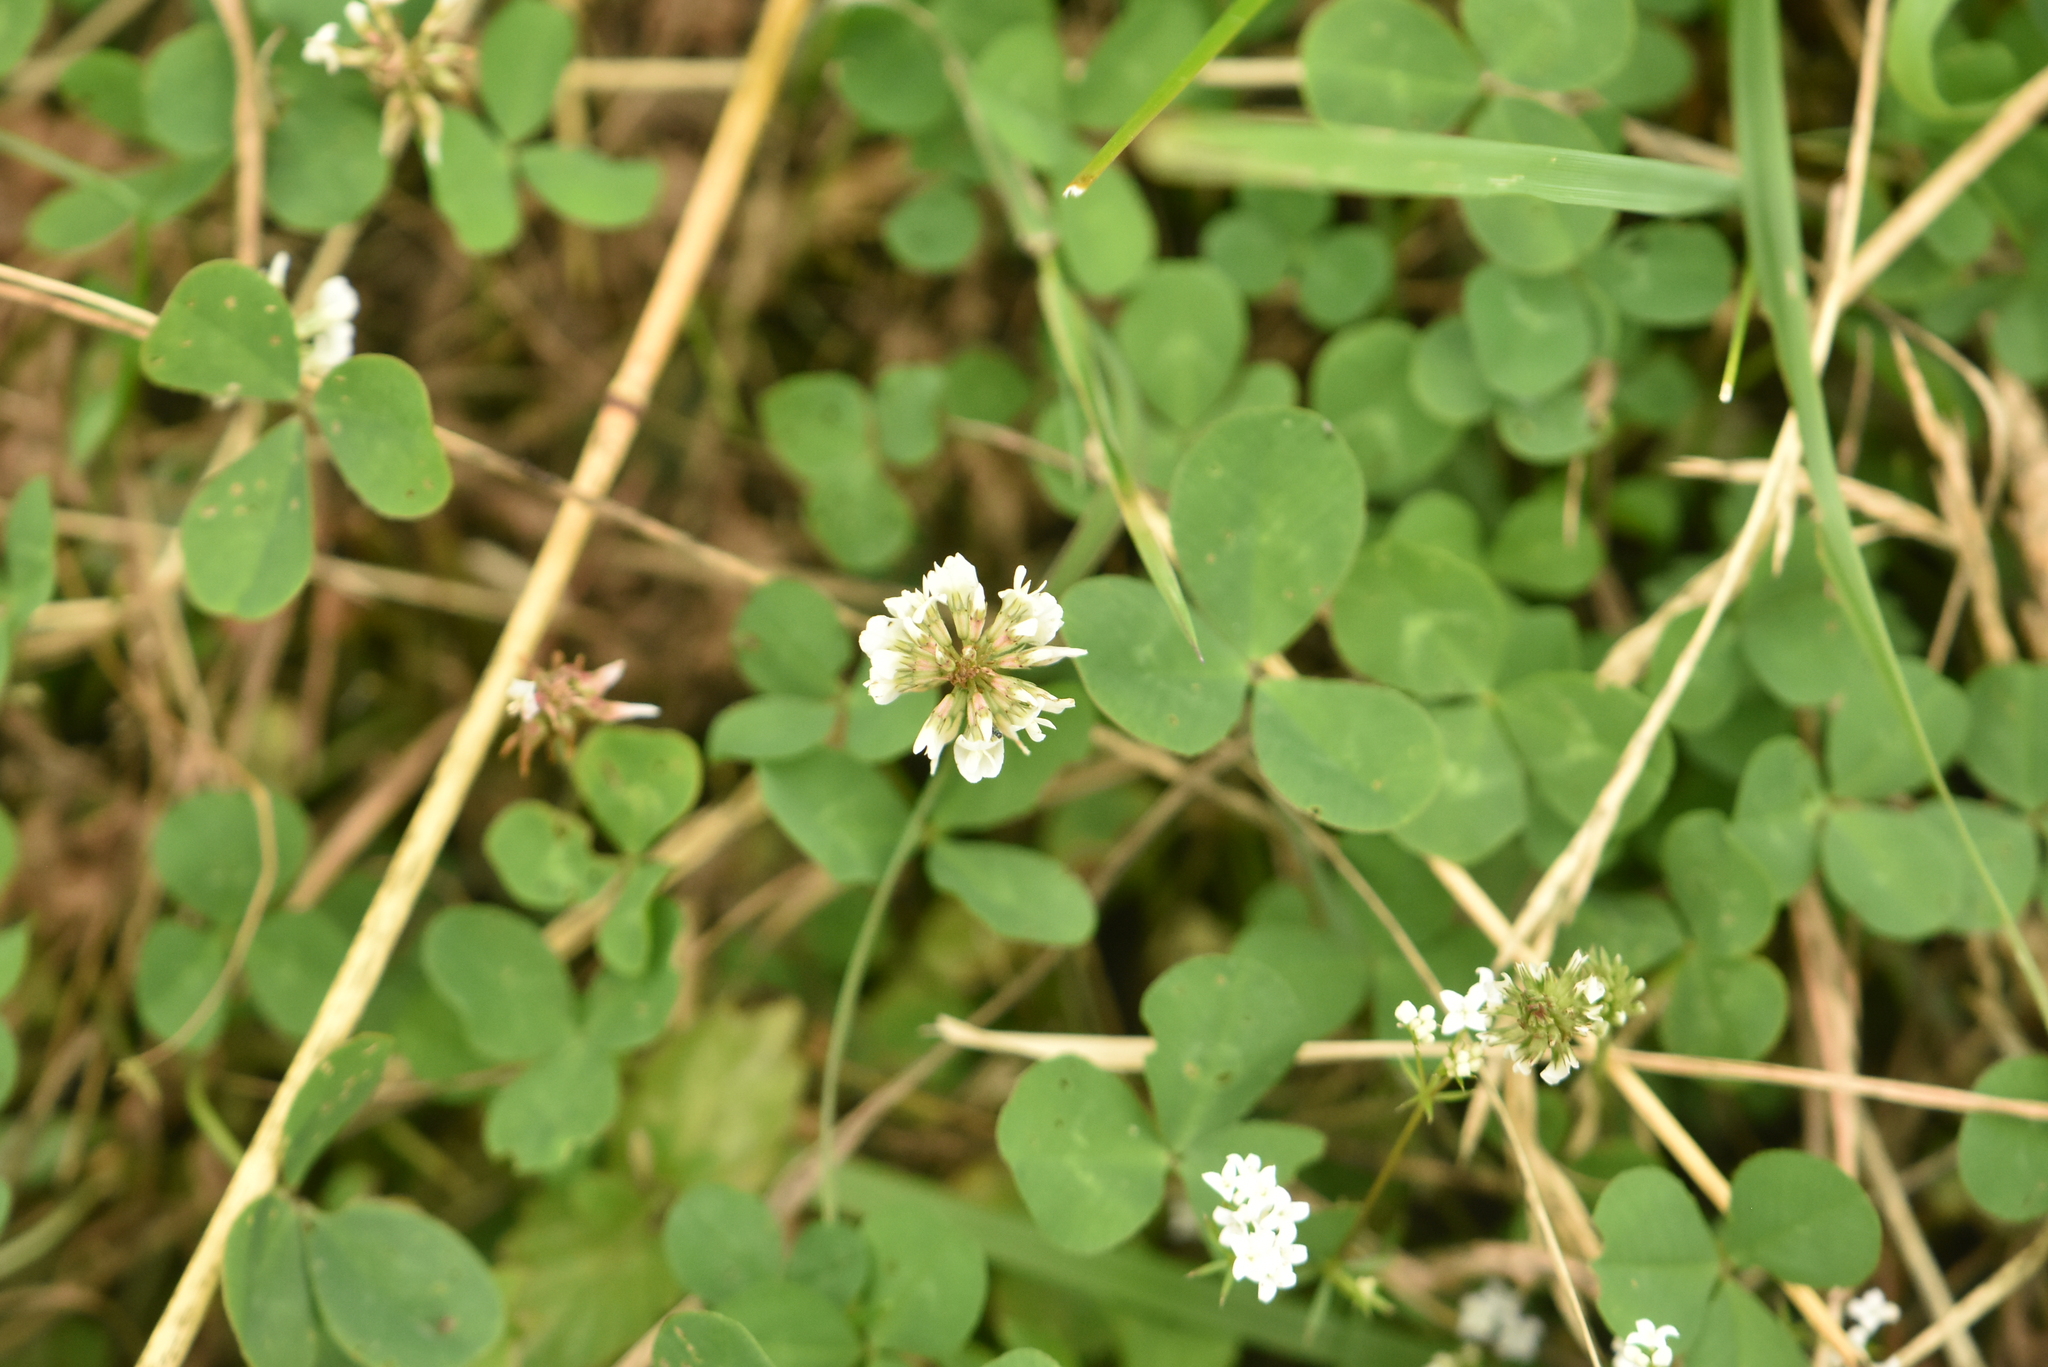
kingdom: Plantae
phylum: Tracheophyta
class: Magnoliopsida
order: Fabales
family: Fabaceae
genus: Trifolium
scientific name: Trifolium repens
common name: White clover
